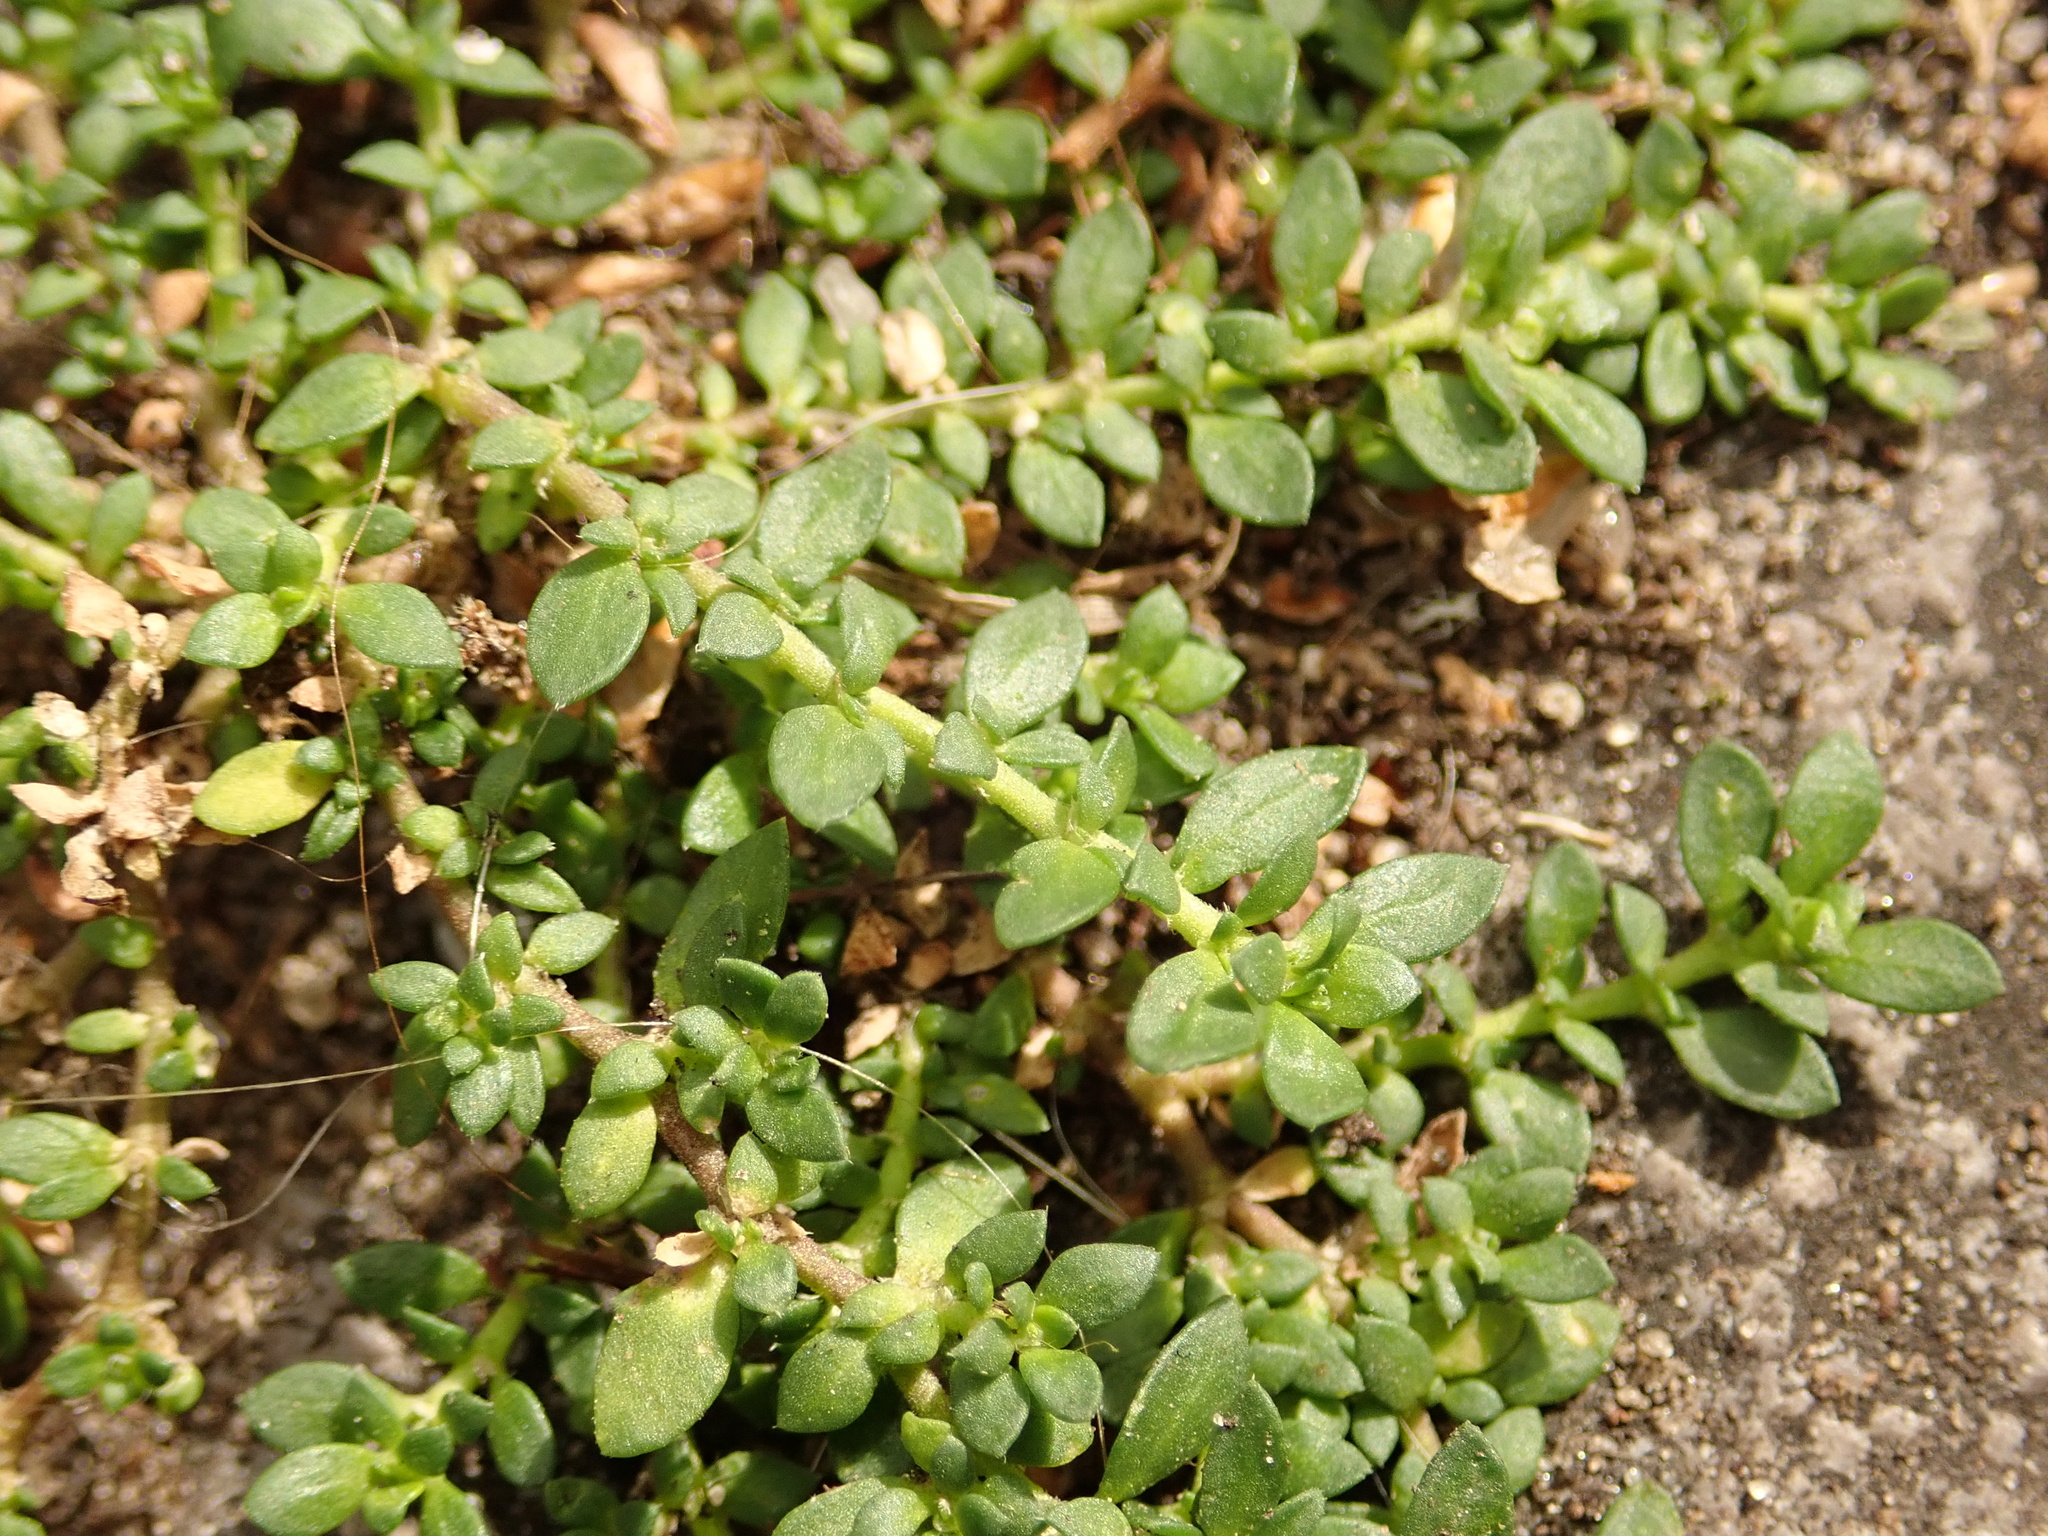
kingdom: Plantae
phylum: Tracheophyta
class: Magnoliopsida
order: Caryophyllales
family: Caryophyllaceae
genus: Herniaria
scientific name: Herniaria glabra
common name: Smooth rupturewort
